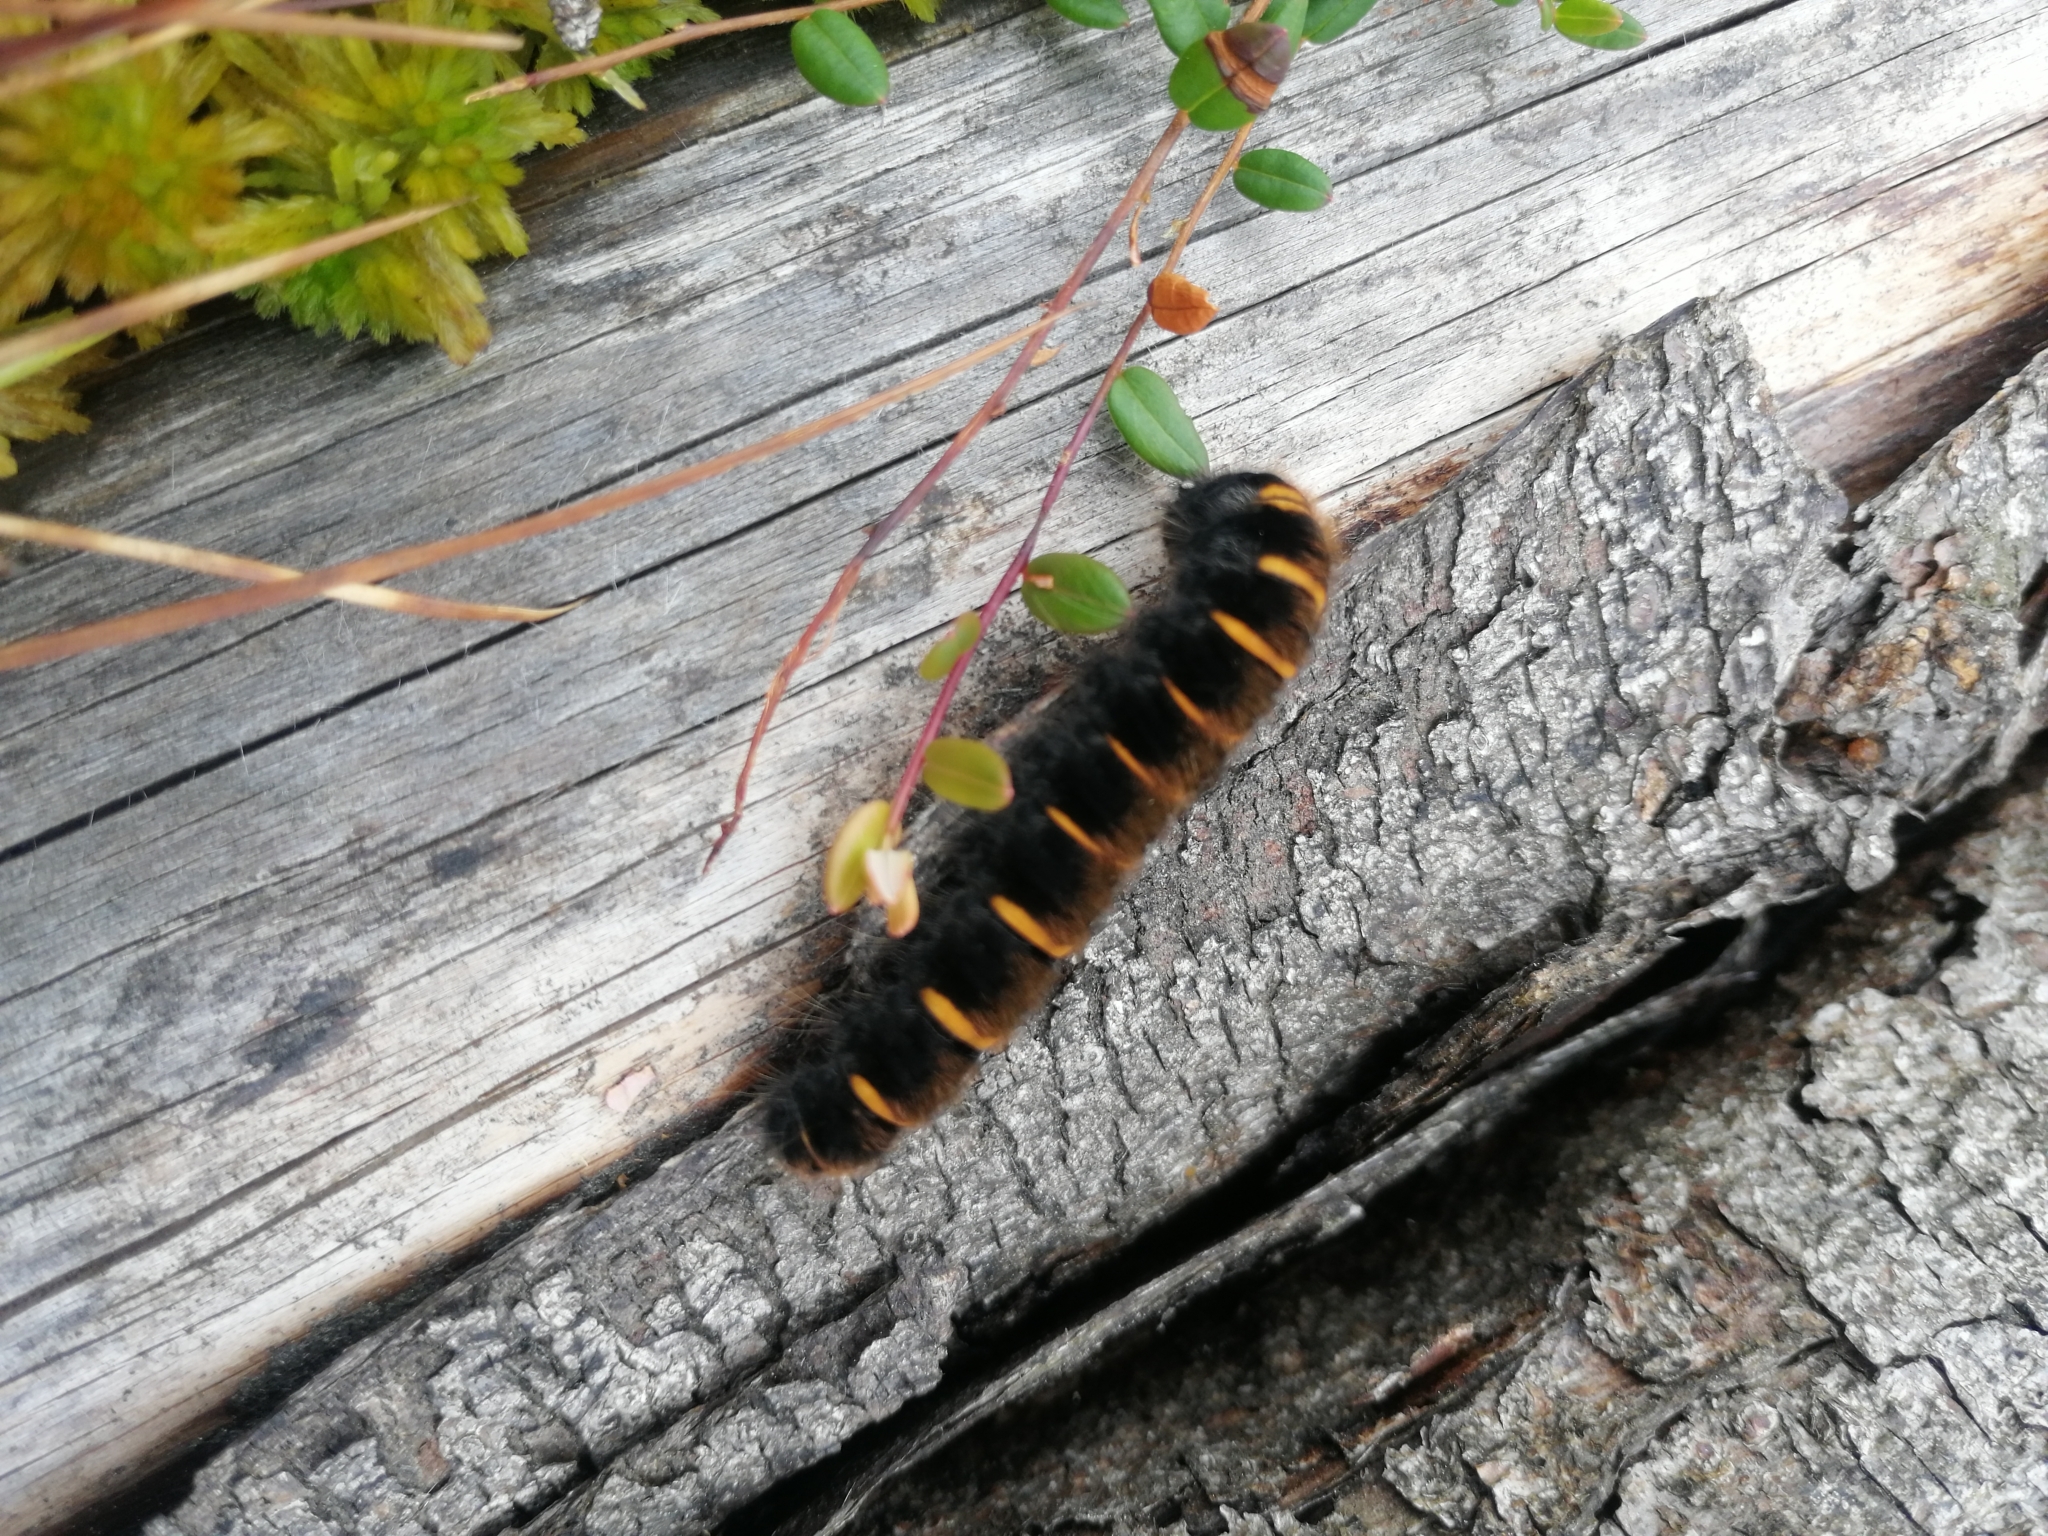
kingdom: Animalia
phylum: Arthropoda
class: Insecta
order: Lepidoptera
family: Lasiocampidae
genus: Macrothylacia
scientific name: Macrothylacia rubi
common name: Fox moth
